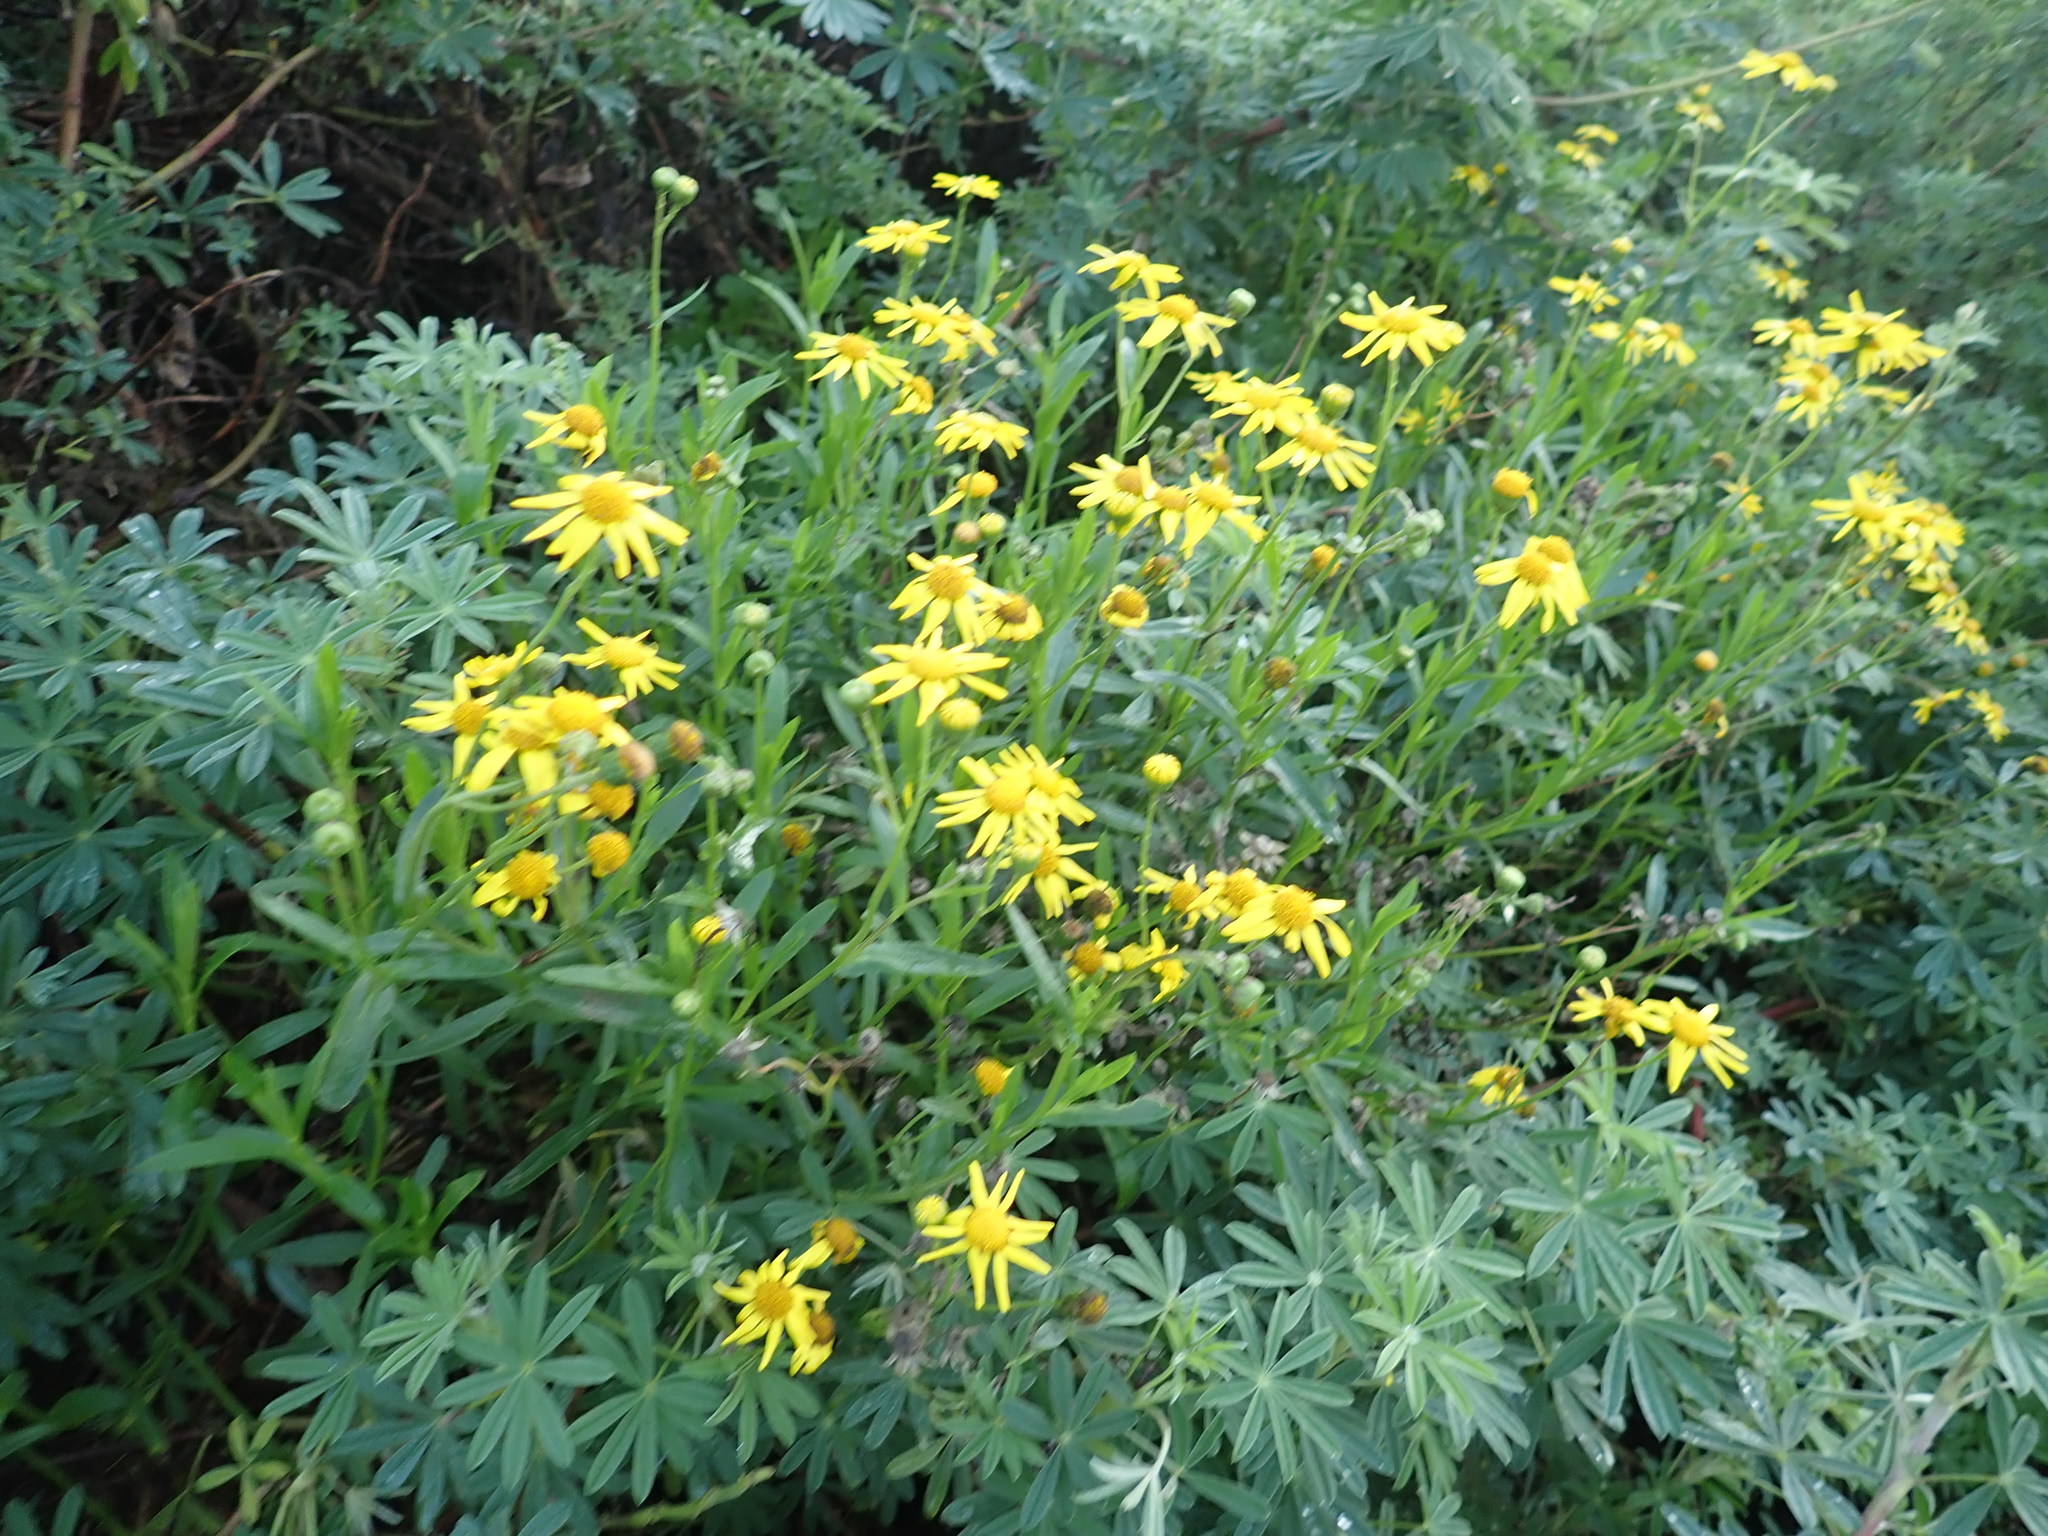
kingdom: Plantae
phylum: Tracheophyta
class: Magnoliopsida
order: Asterales
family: Asteraceae
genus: Senecio
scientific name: Senecio skirrhodon
